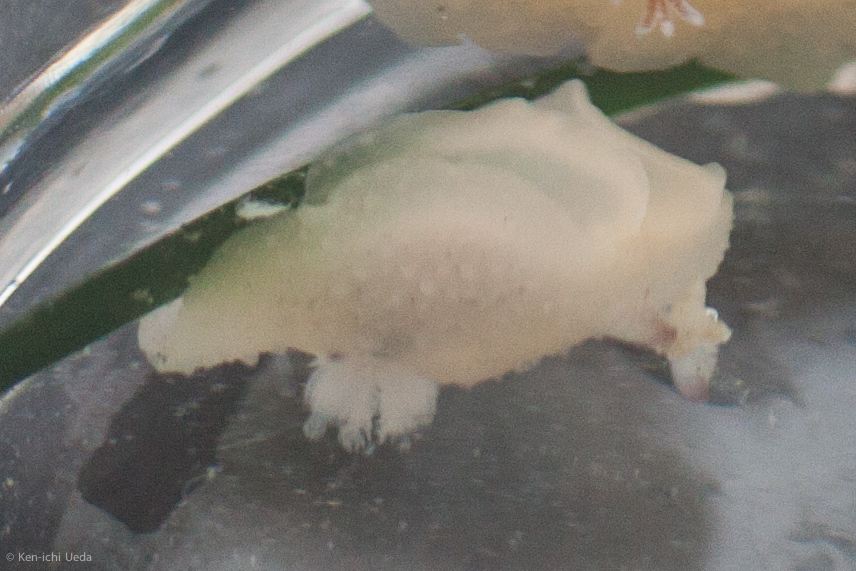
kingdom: Animalia
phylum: Mollusca
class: Gastropoda
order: Nudibranchia
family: Actinocyclidae
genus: Hallaxa
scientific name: Hallaxa chani
